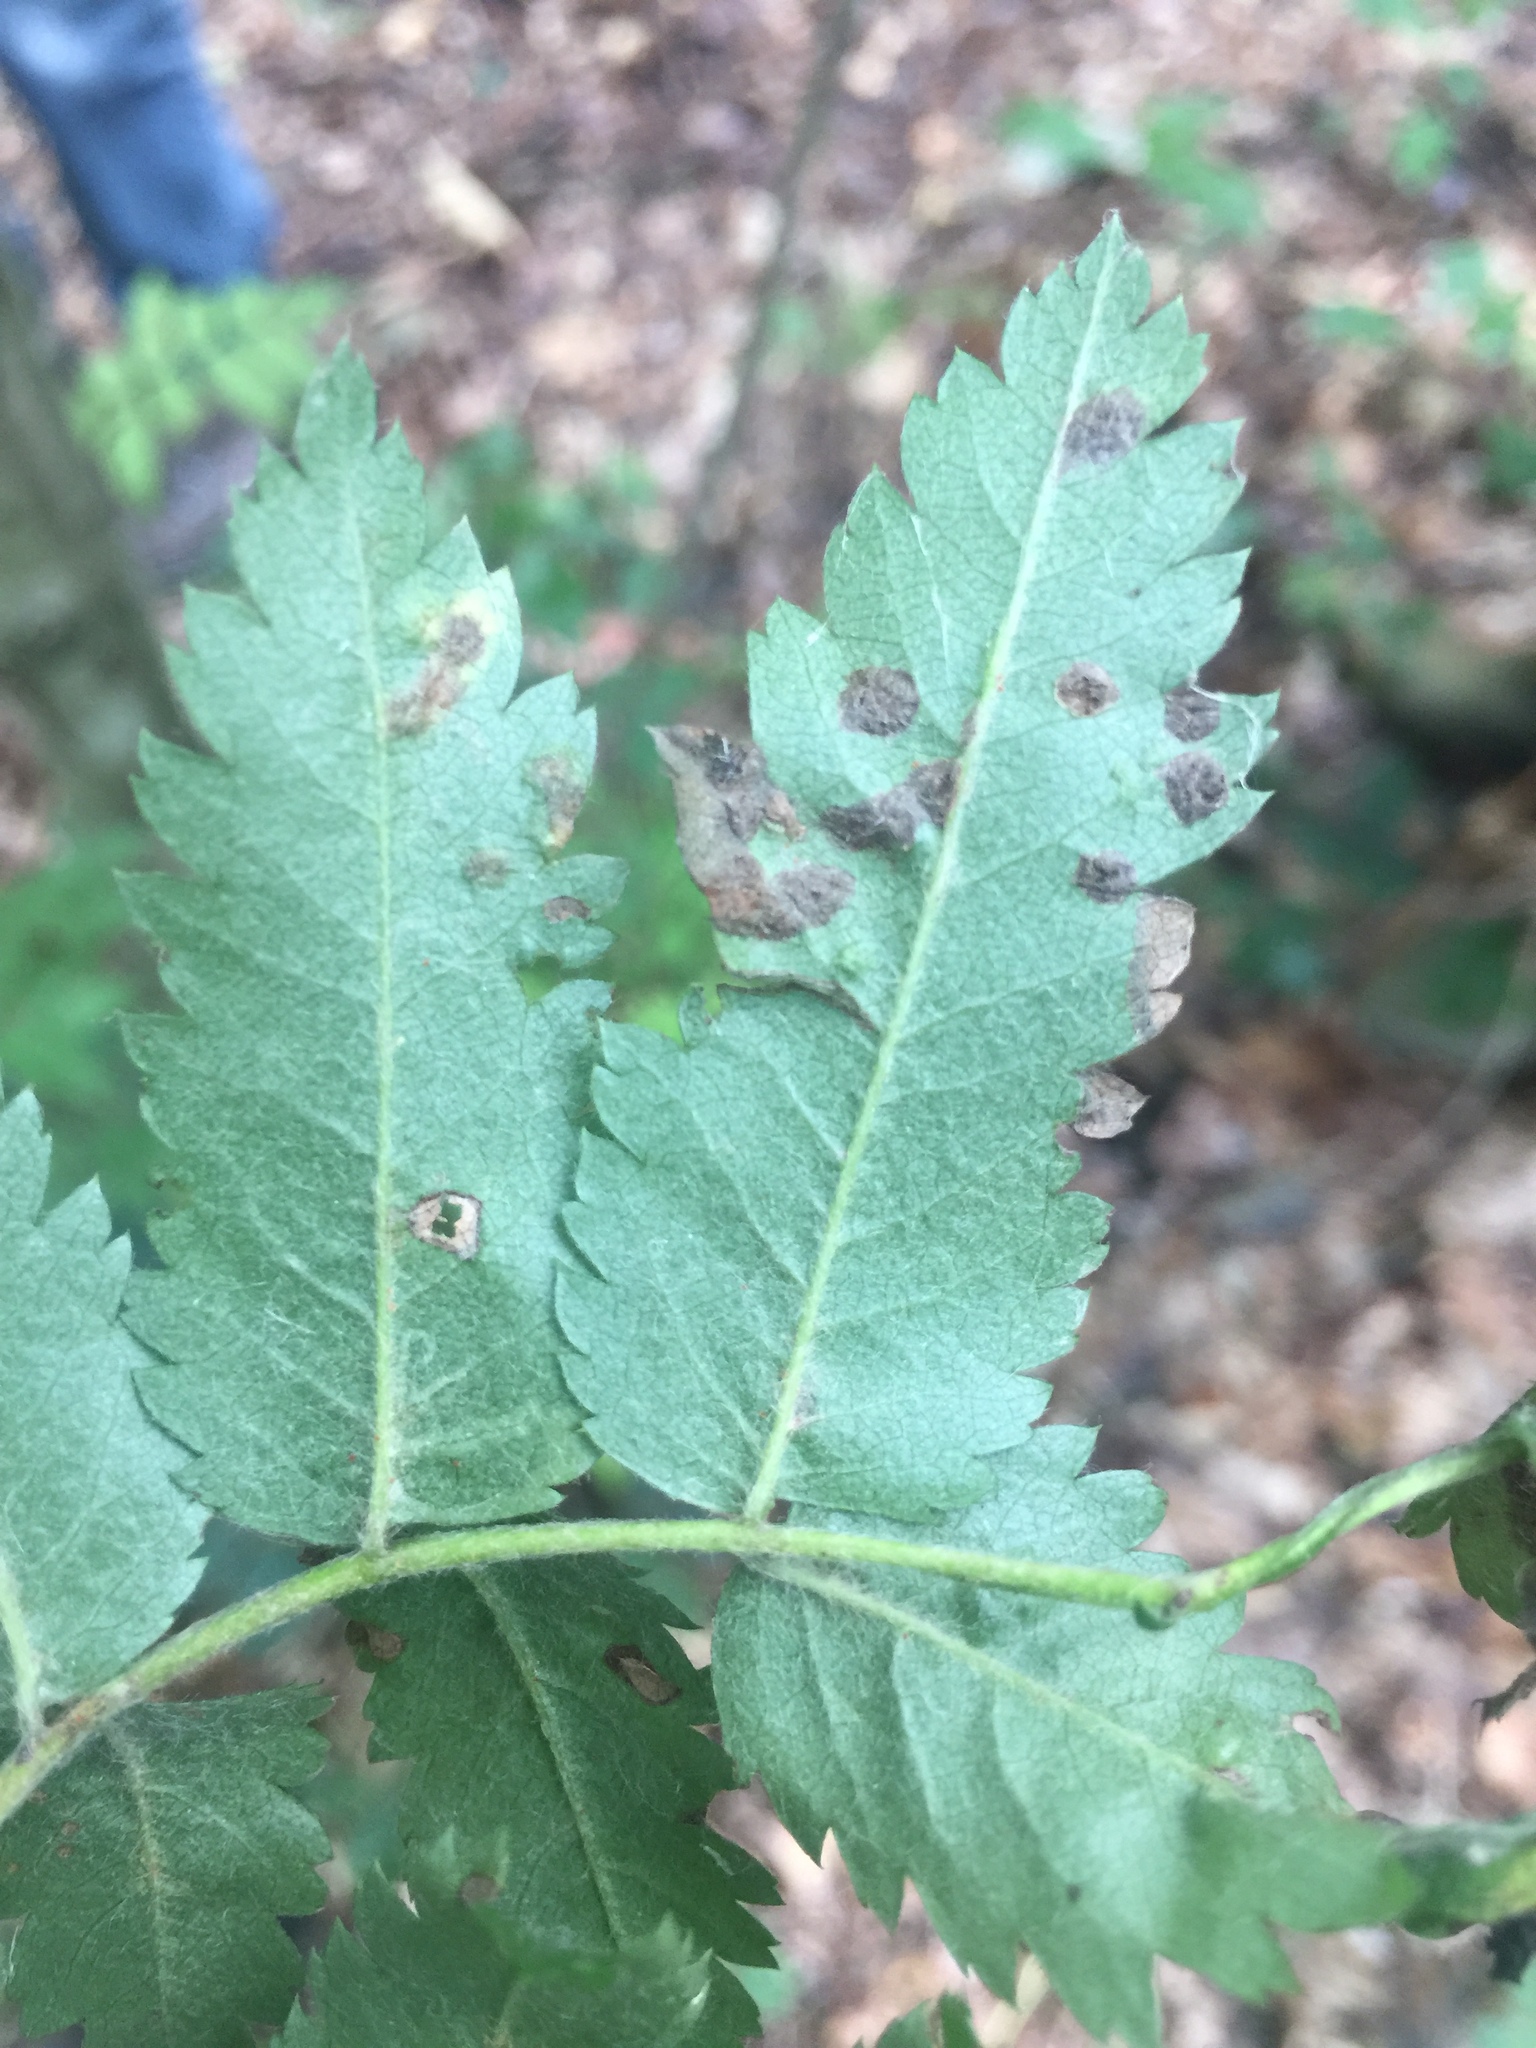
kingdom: Animalia
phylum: Arthropoda
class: Arachnida
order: Trombidiformes
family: Eriophyidae
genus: Eriophyes
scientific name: Eriophyes sorbi
